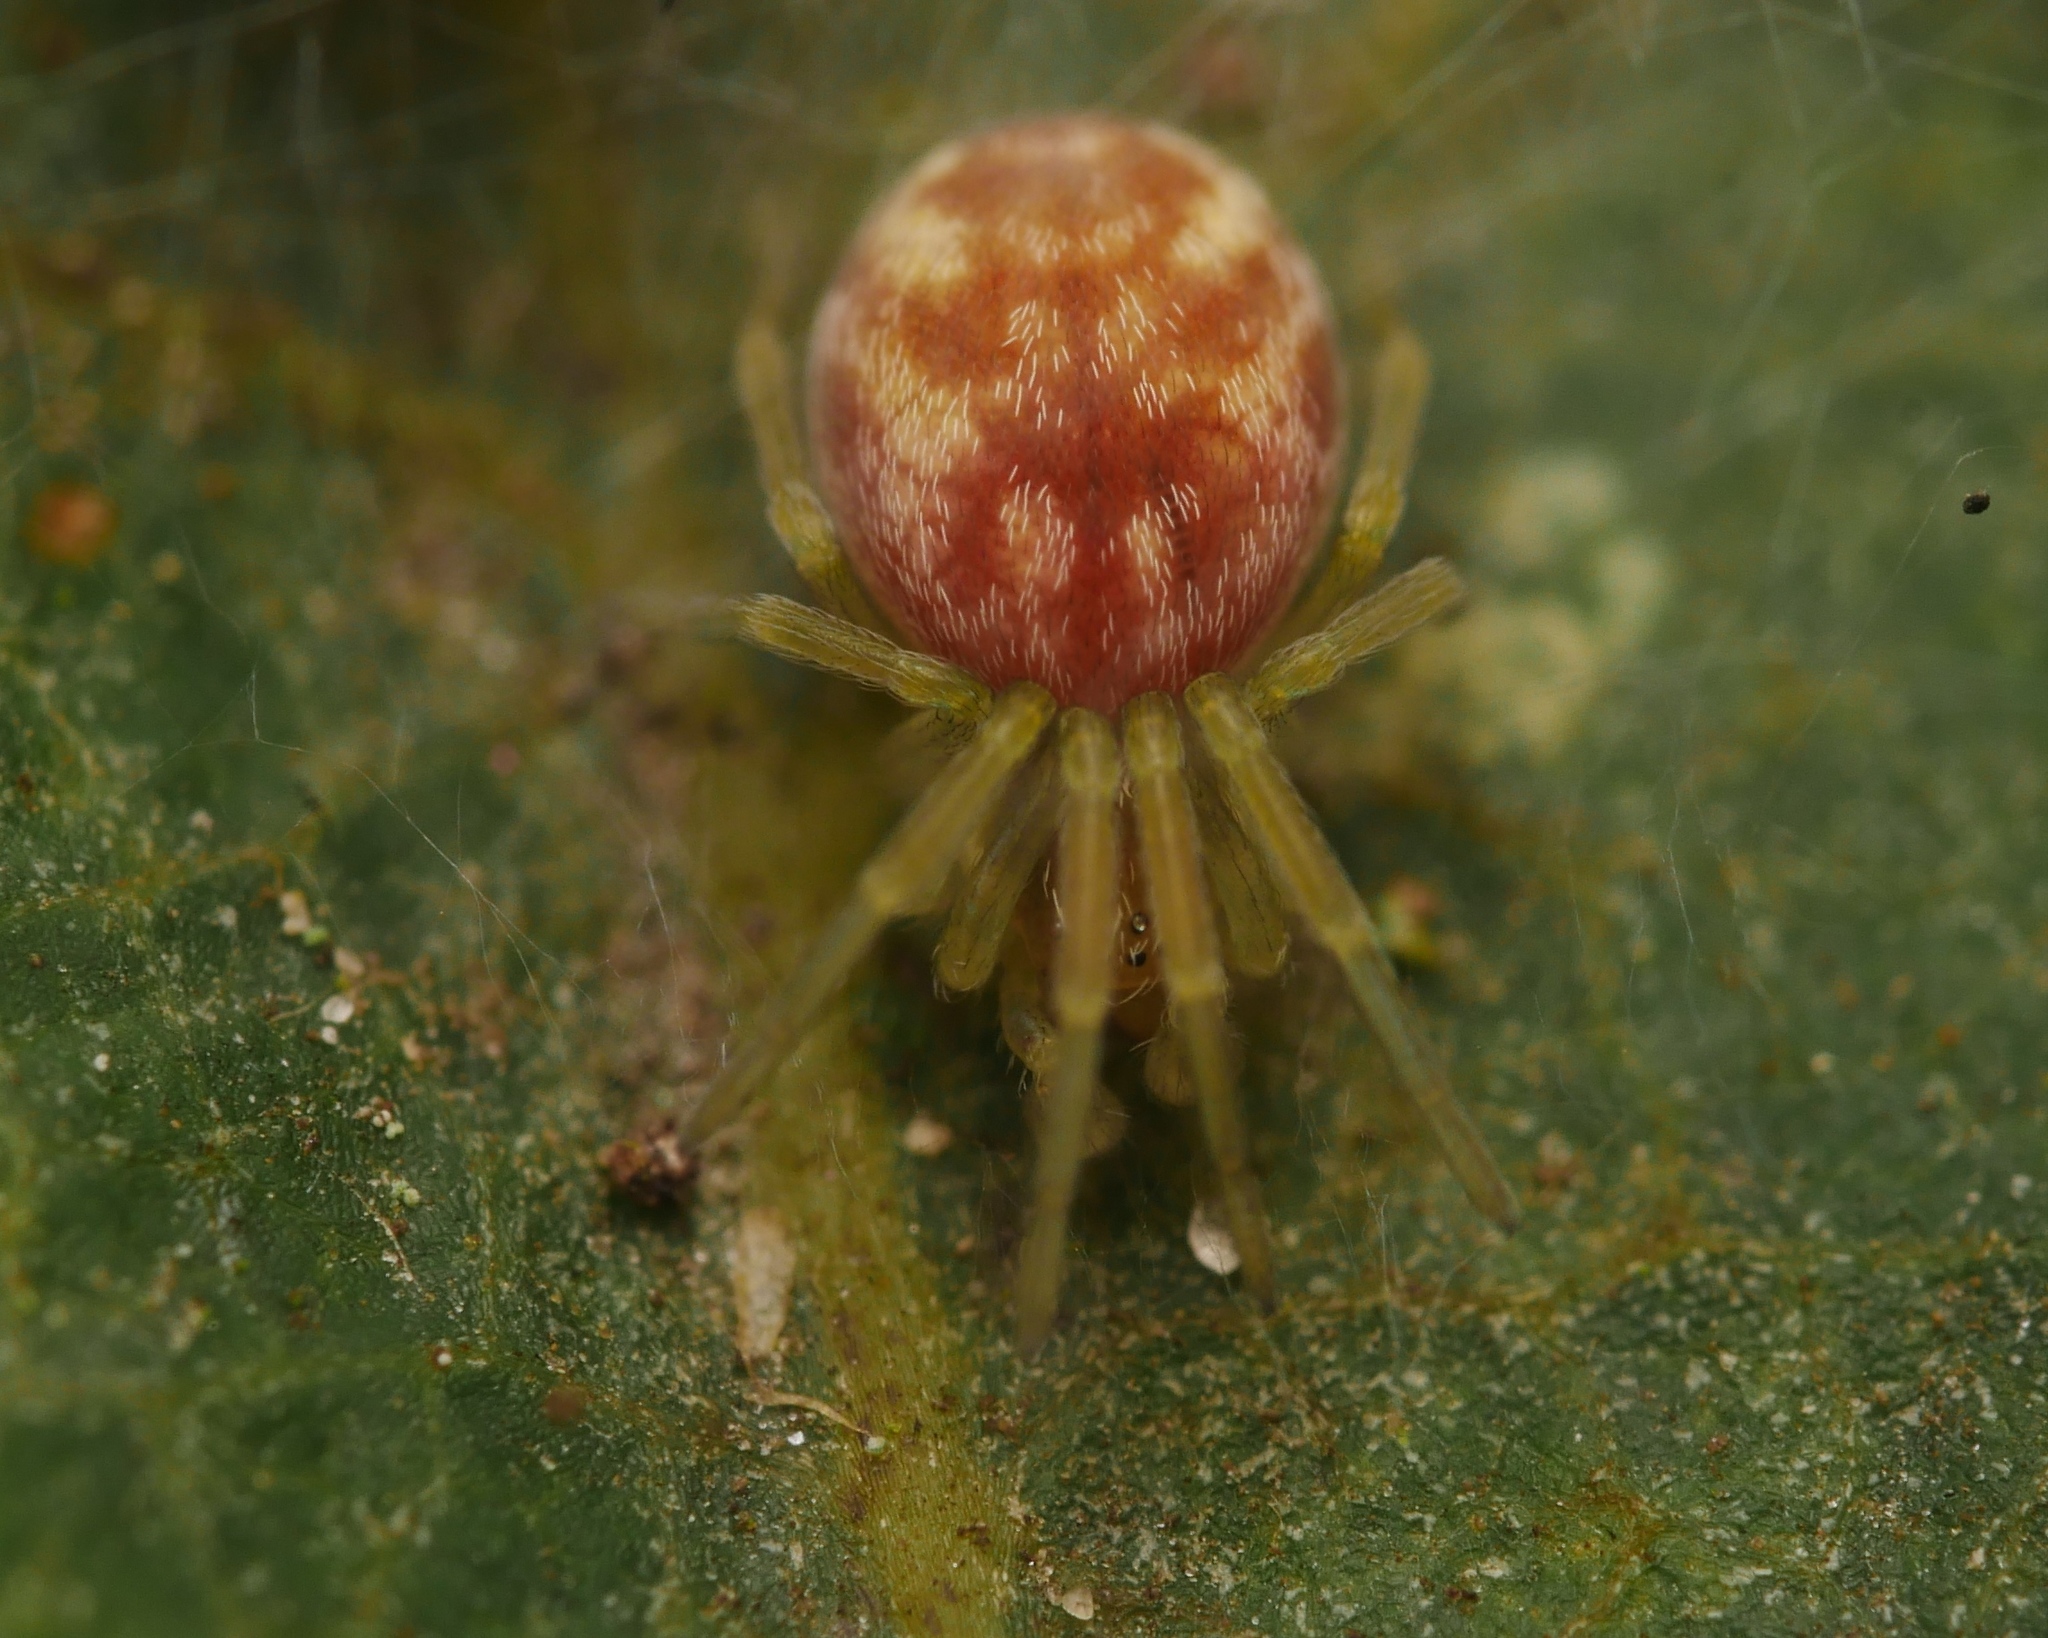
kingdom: Animalia
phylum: Arthropoda
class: Arachnida
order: Araneae
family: Dictynidae
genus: Nigma
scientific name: Nigma flavescens
